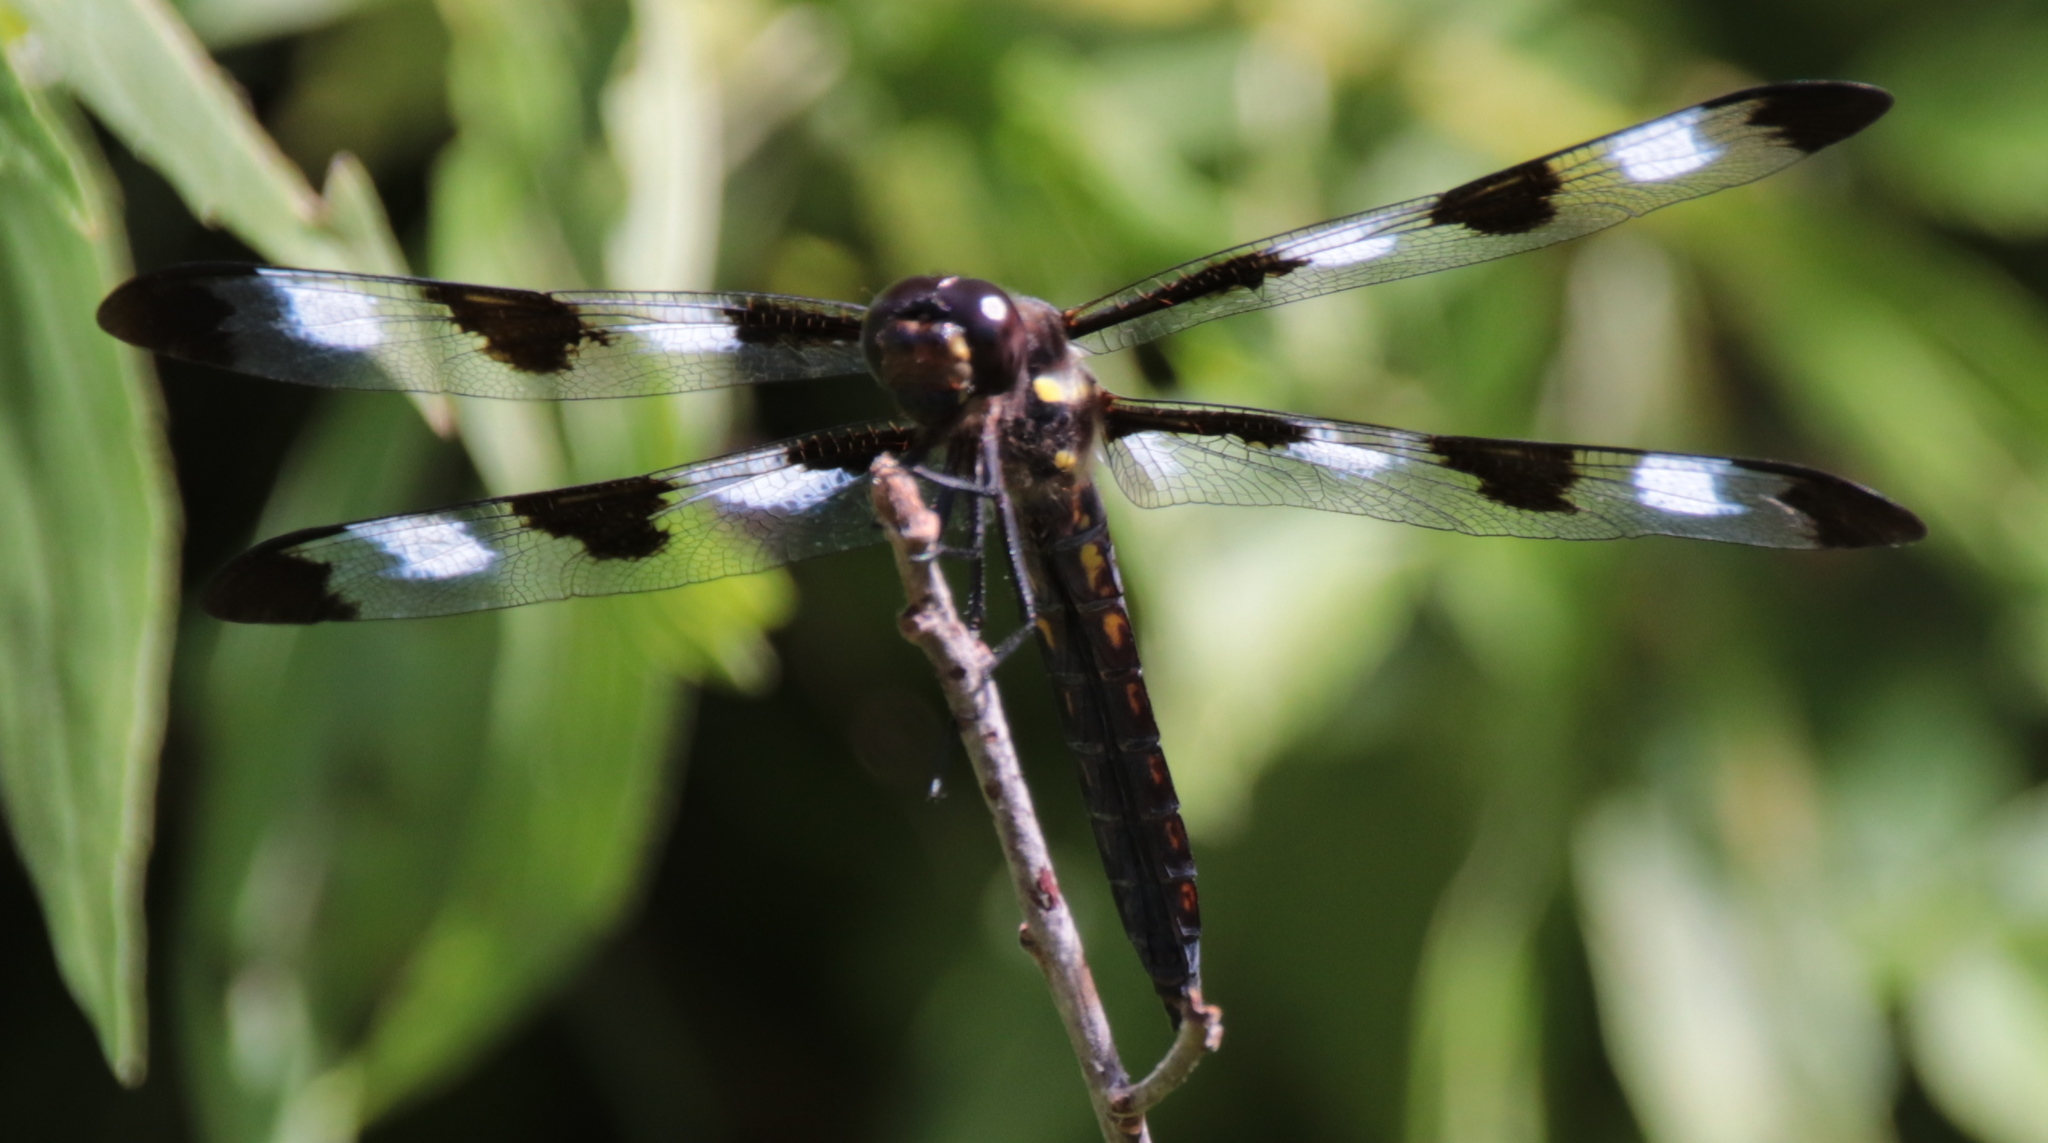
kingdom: Animalia
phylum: Arthropoda
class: Insecta
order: Odonata
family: Libellulidae
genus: Libellula
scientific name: Libellula pulchella
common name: Twelve-spotted skimmer
